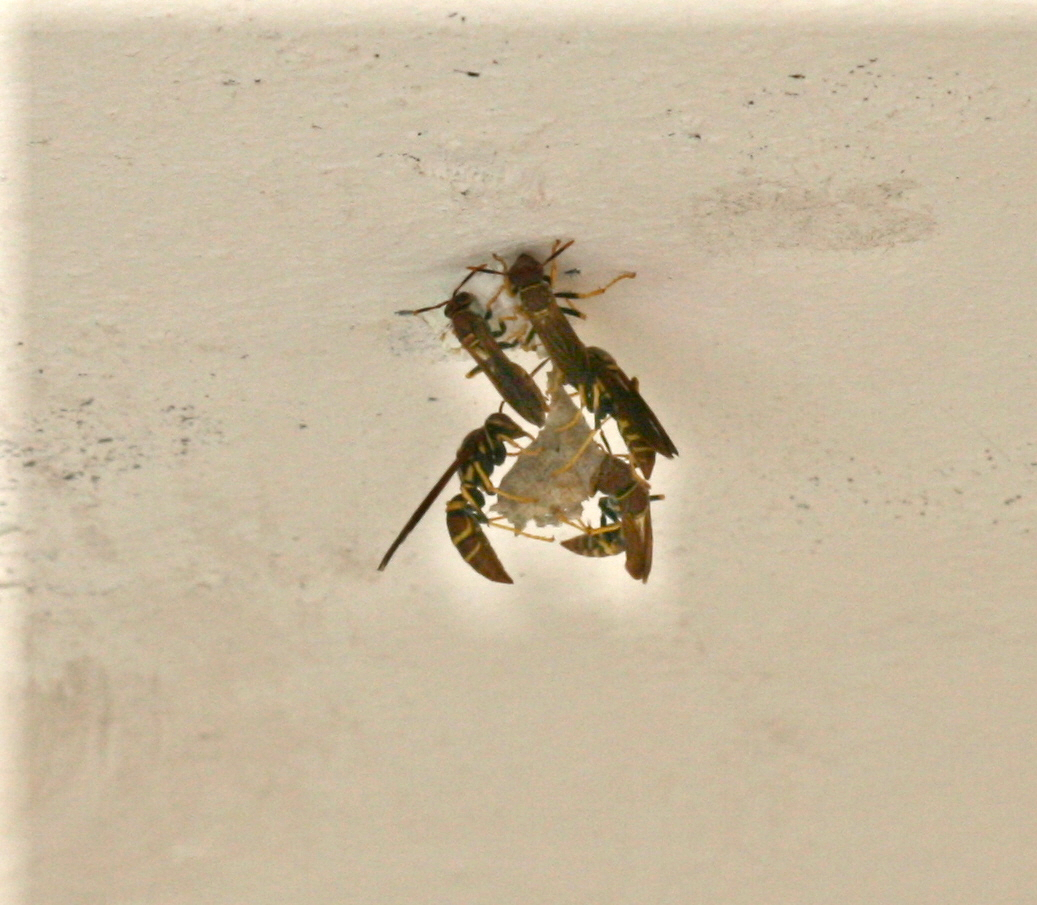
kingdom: Animalia
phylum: Arthropoda
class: Insecta
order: Hymenoptera
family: Eumenidae
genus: Polistes
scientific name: Polistes crinitus
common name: Jack spaniard
